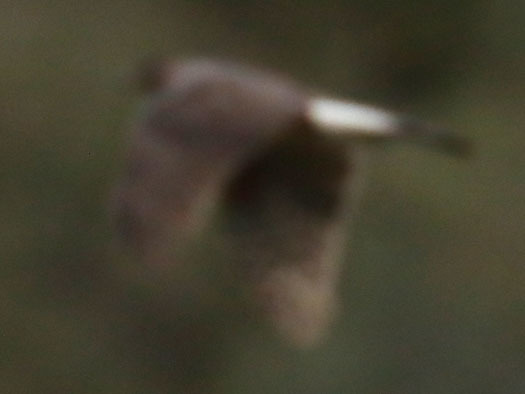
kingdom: Animalia
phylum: Chordata
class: Aves
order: Accipitriformes
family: Accipitridae
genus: Accipiter
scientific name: Accipiter cooperii
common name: Cooper's hawk
